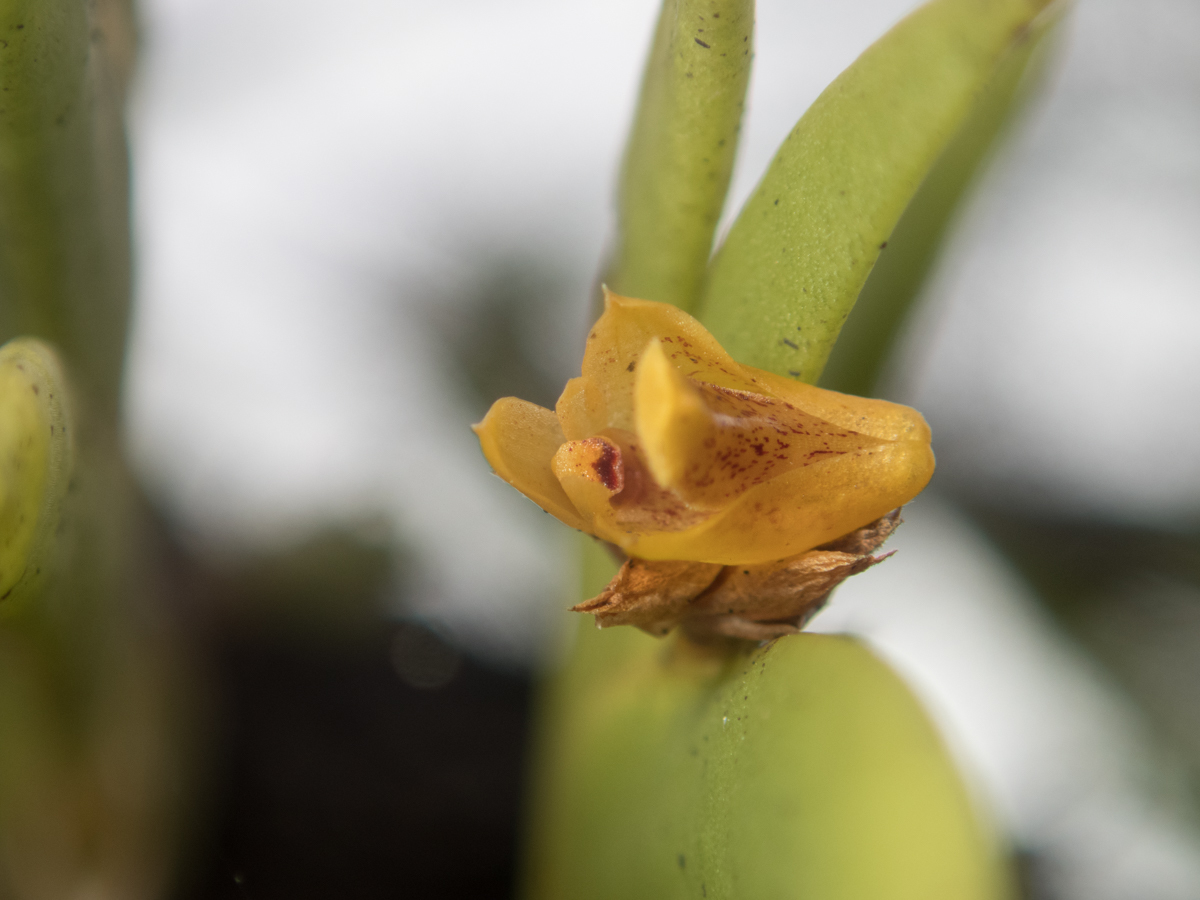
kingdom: Plantae
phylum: Tracheophyta
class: Liliopsida
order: Asparagales
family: Orchidaceae
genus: Oxystophyllum
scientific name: Oxystophyllum carnosum
